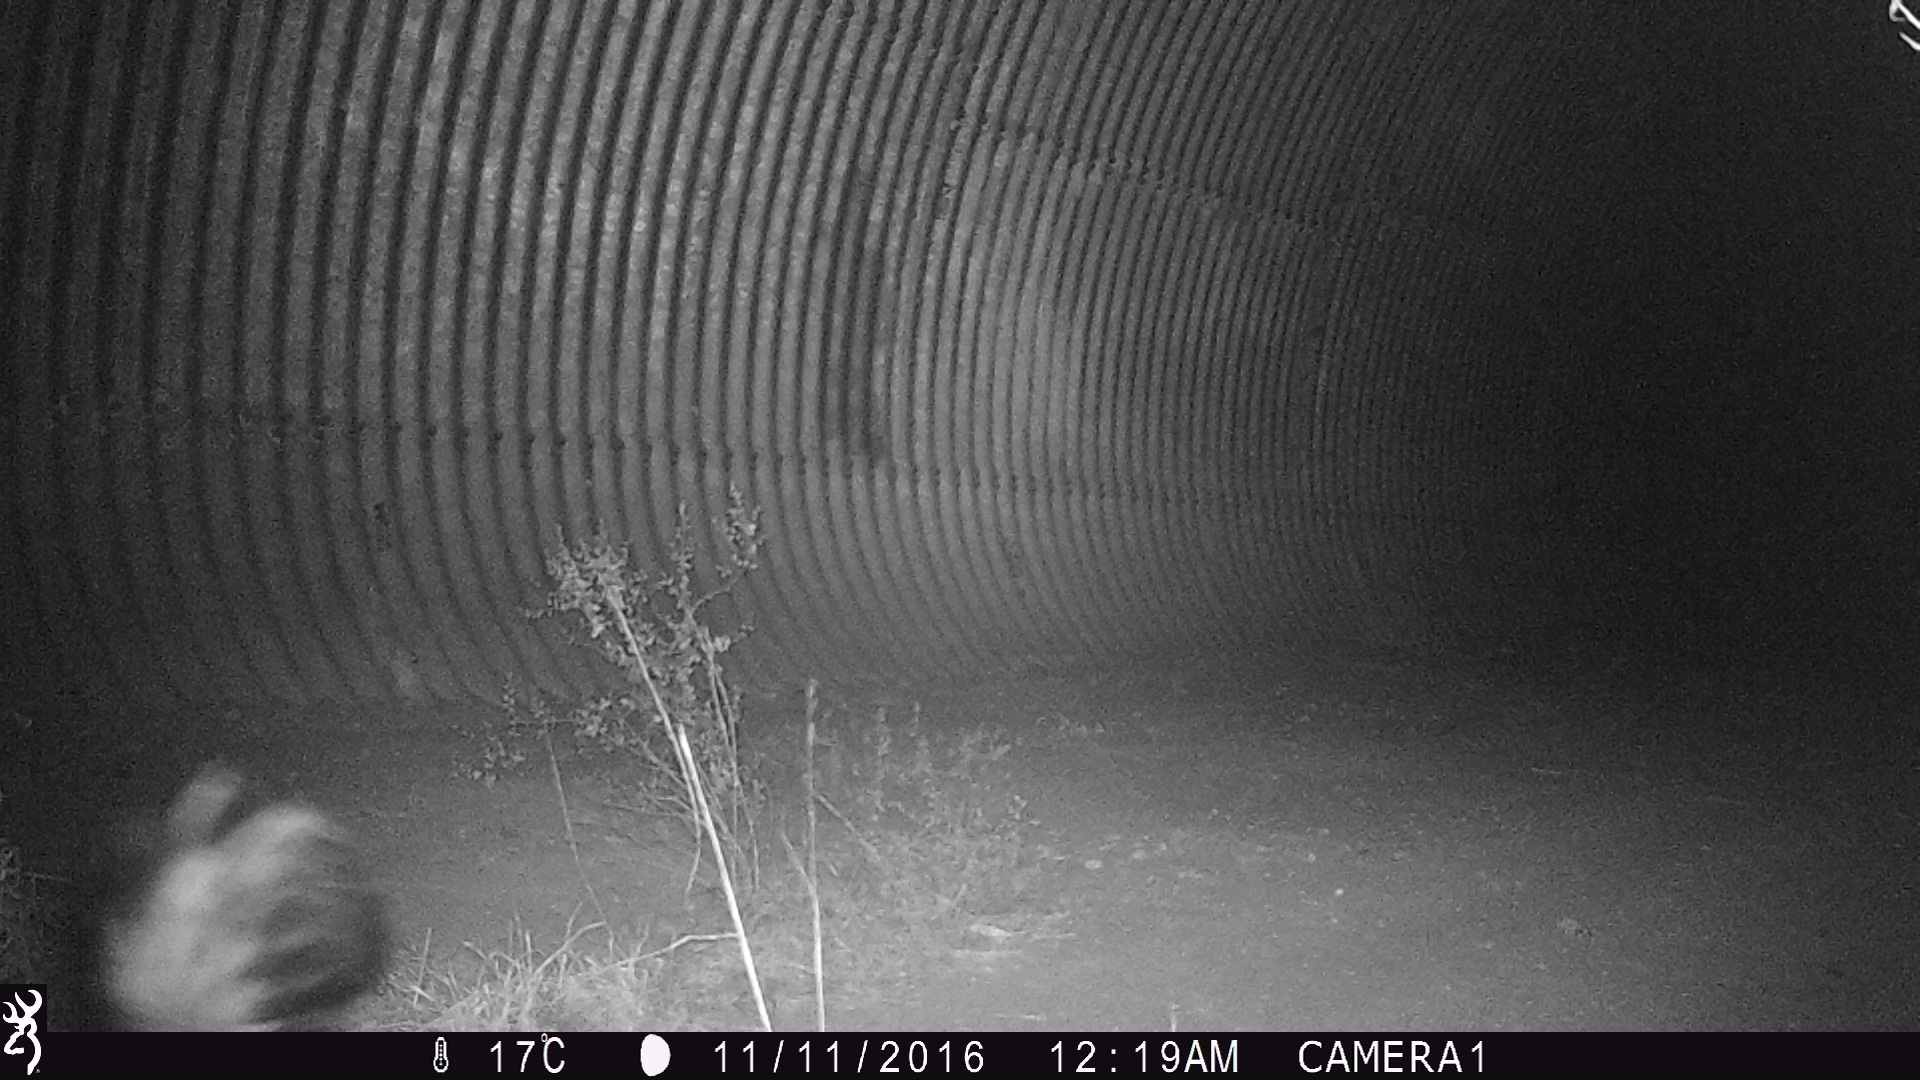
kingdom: Animalia
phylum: Chordata
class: Mammalia
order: Carnivora
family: Mephitidae
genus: Mephitis
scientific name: Mephitis mephitis
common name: Striped skunk
